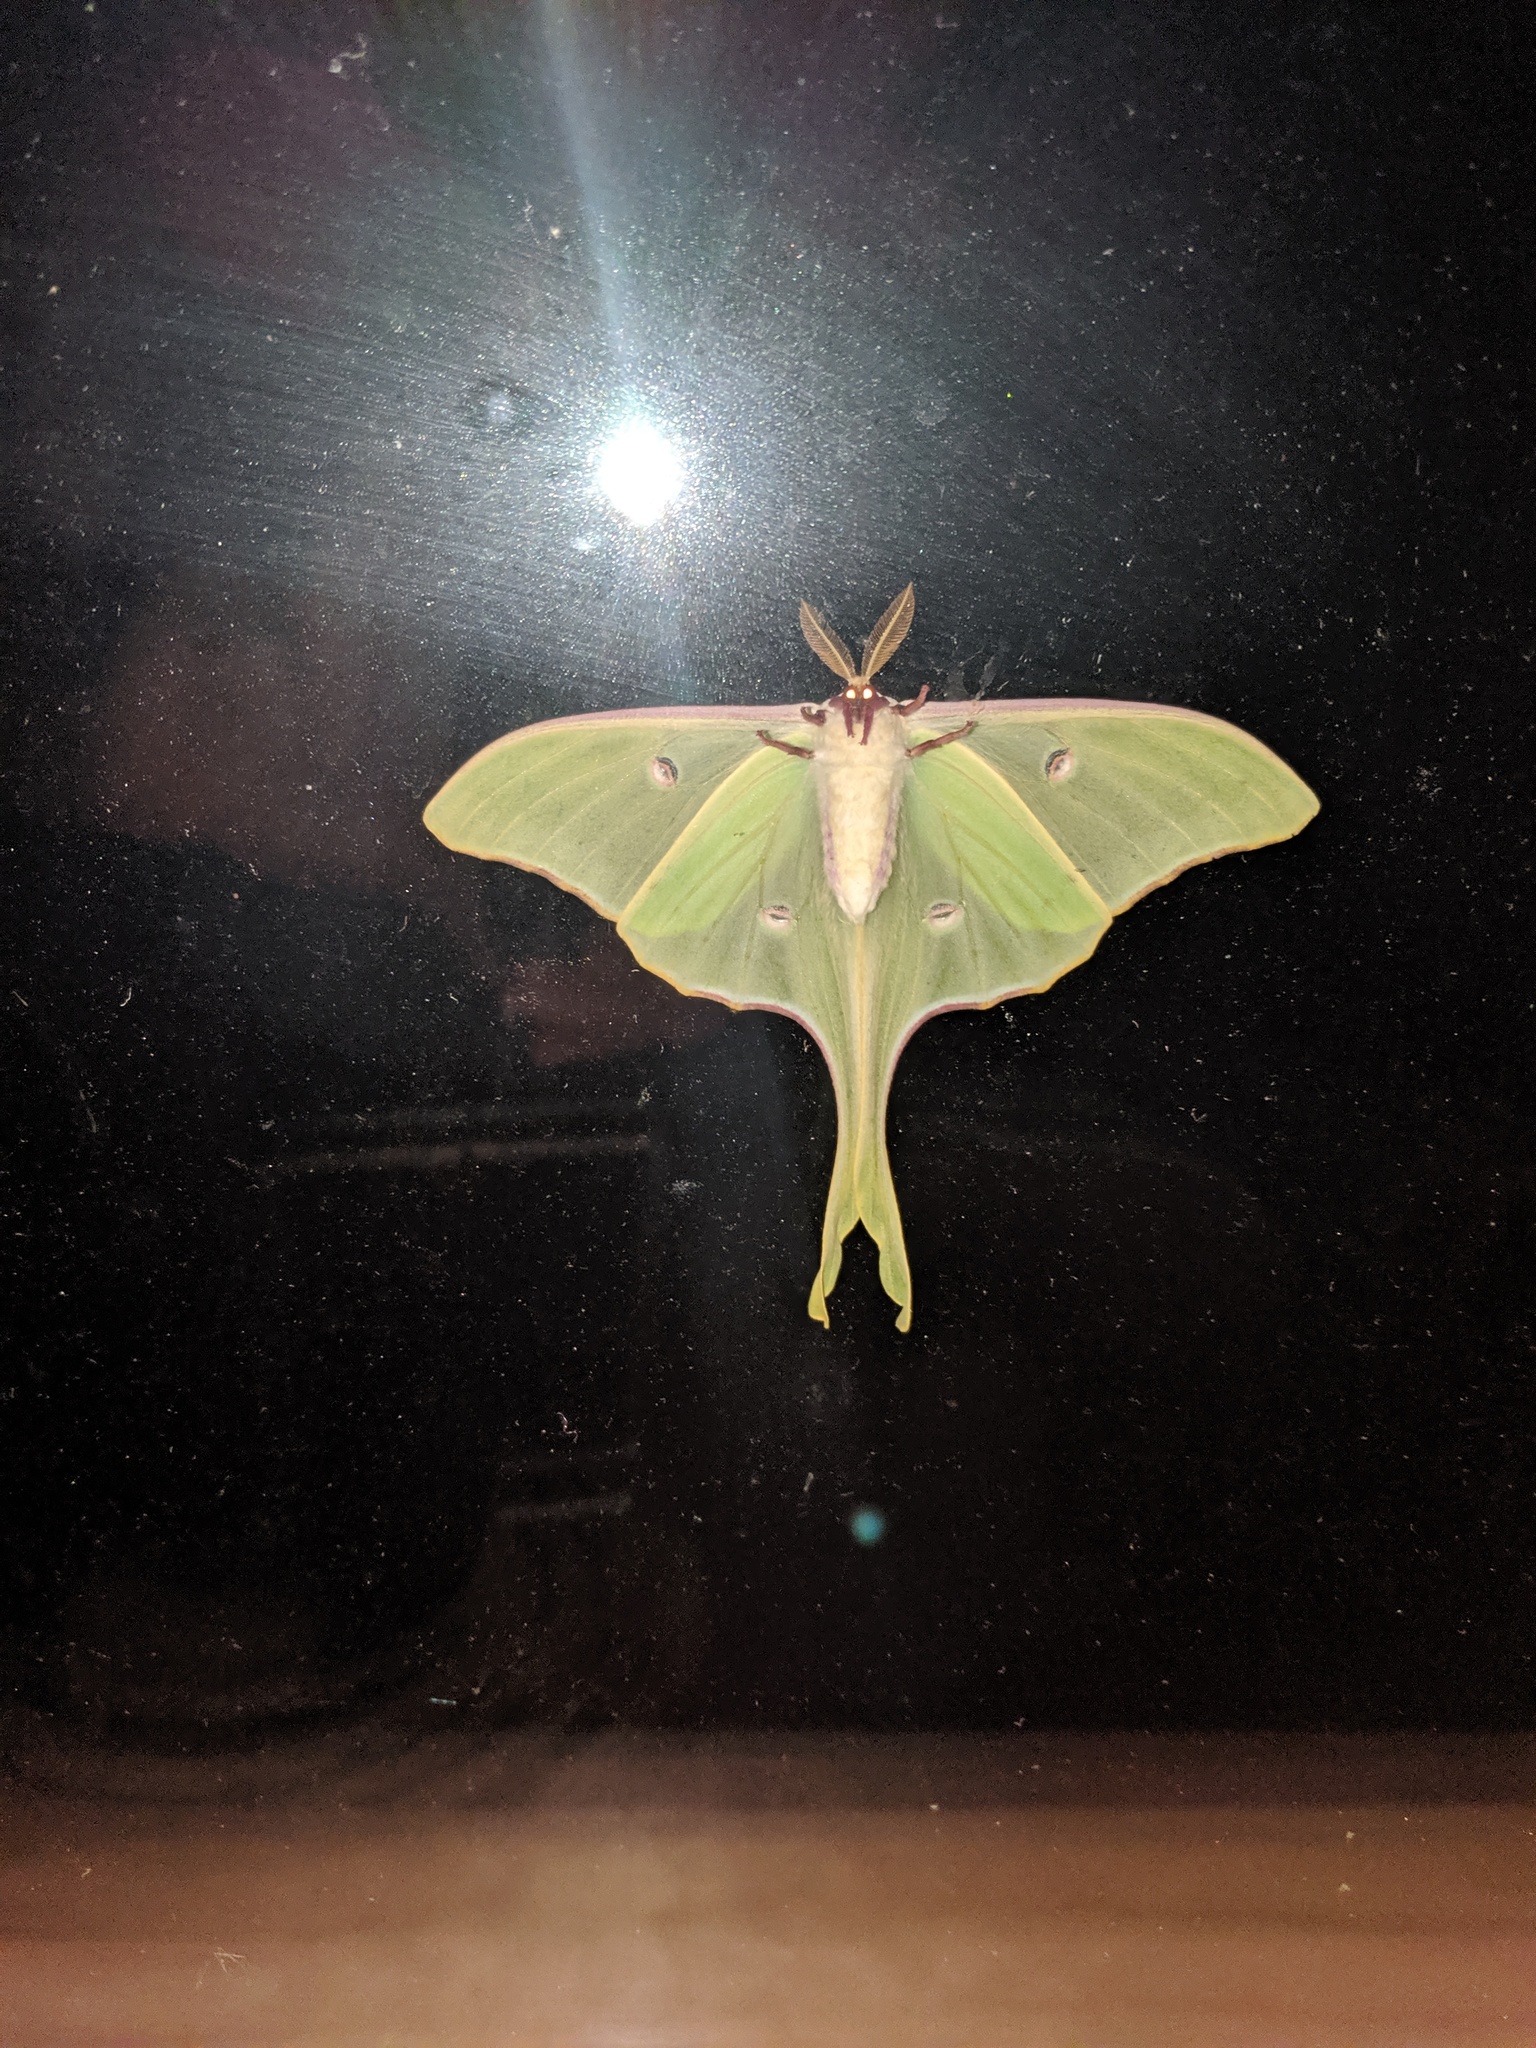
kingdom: Animalia
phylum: Arthropoda
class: Insecta
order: Lepidoptera
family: Saturniidae
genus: Actias
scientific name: Actias luna
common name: Luna moth
